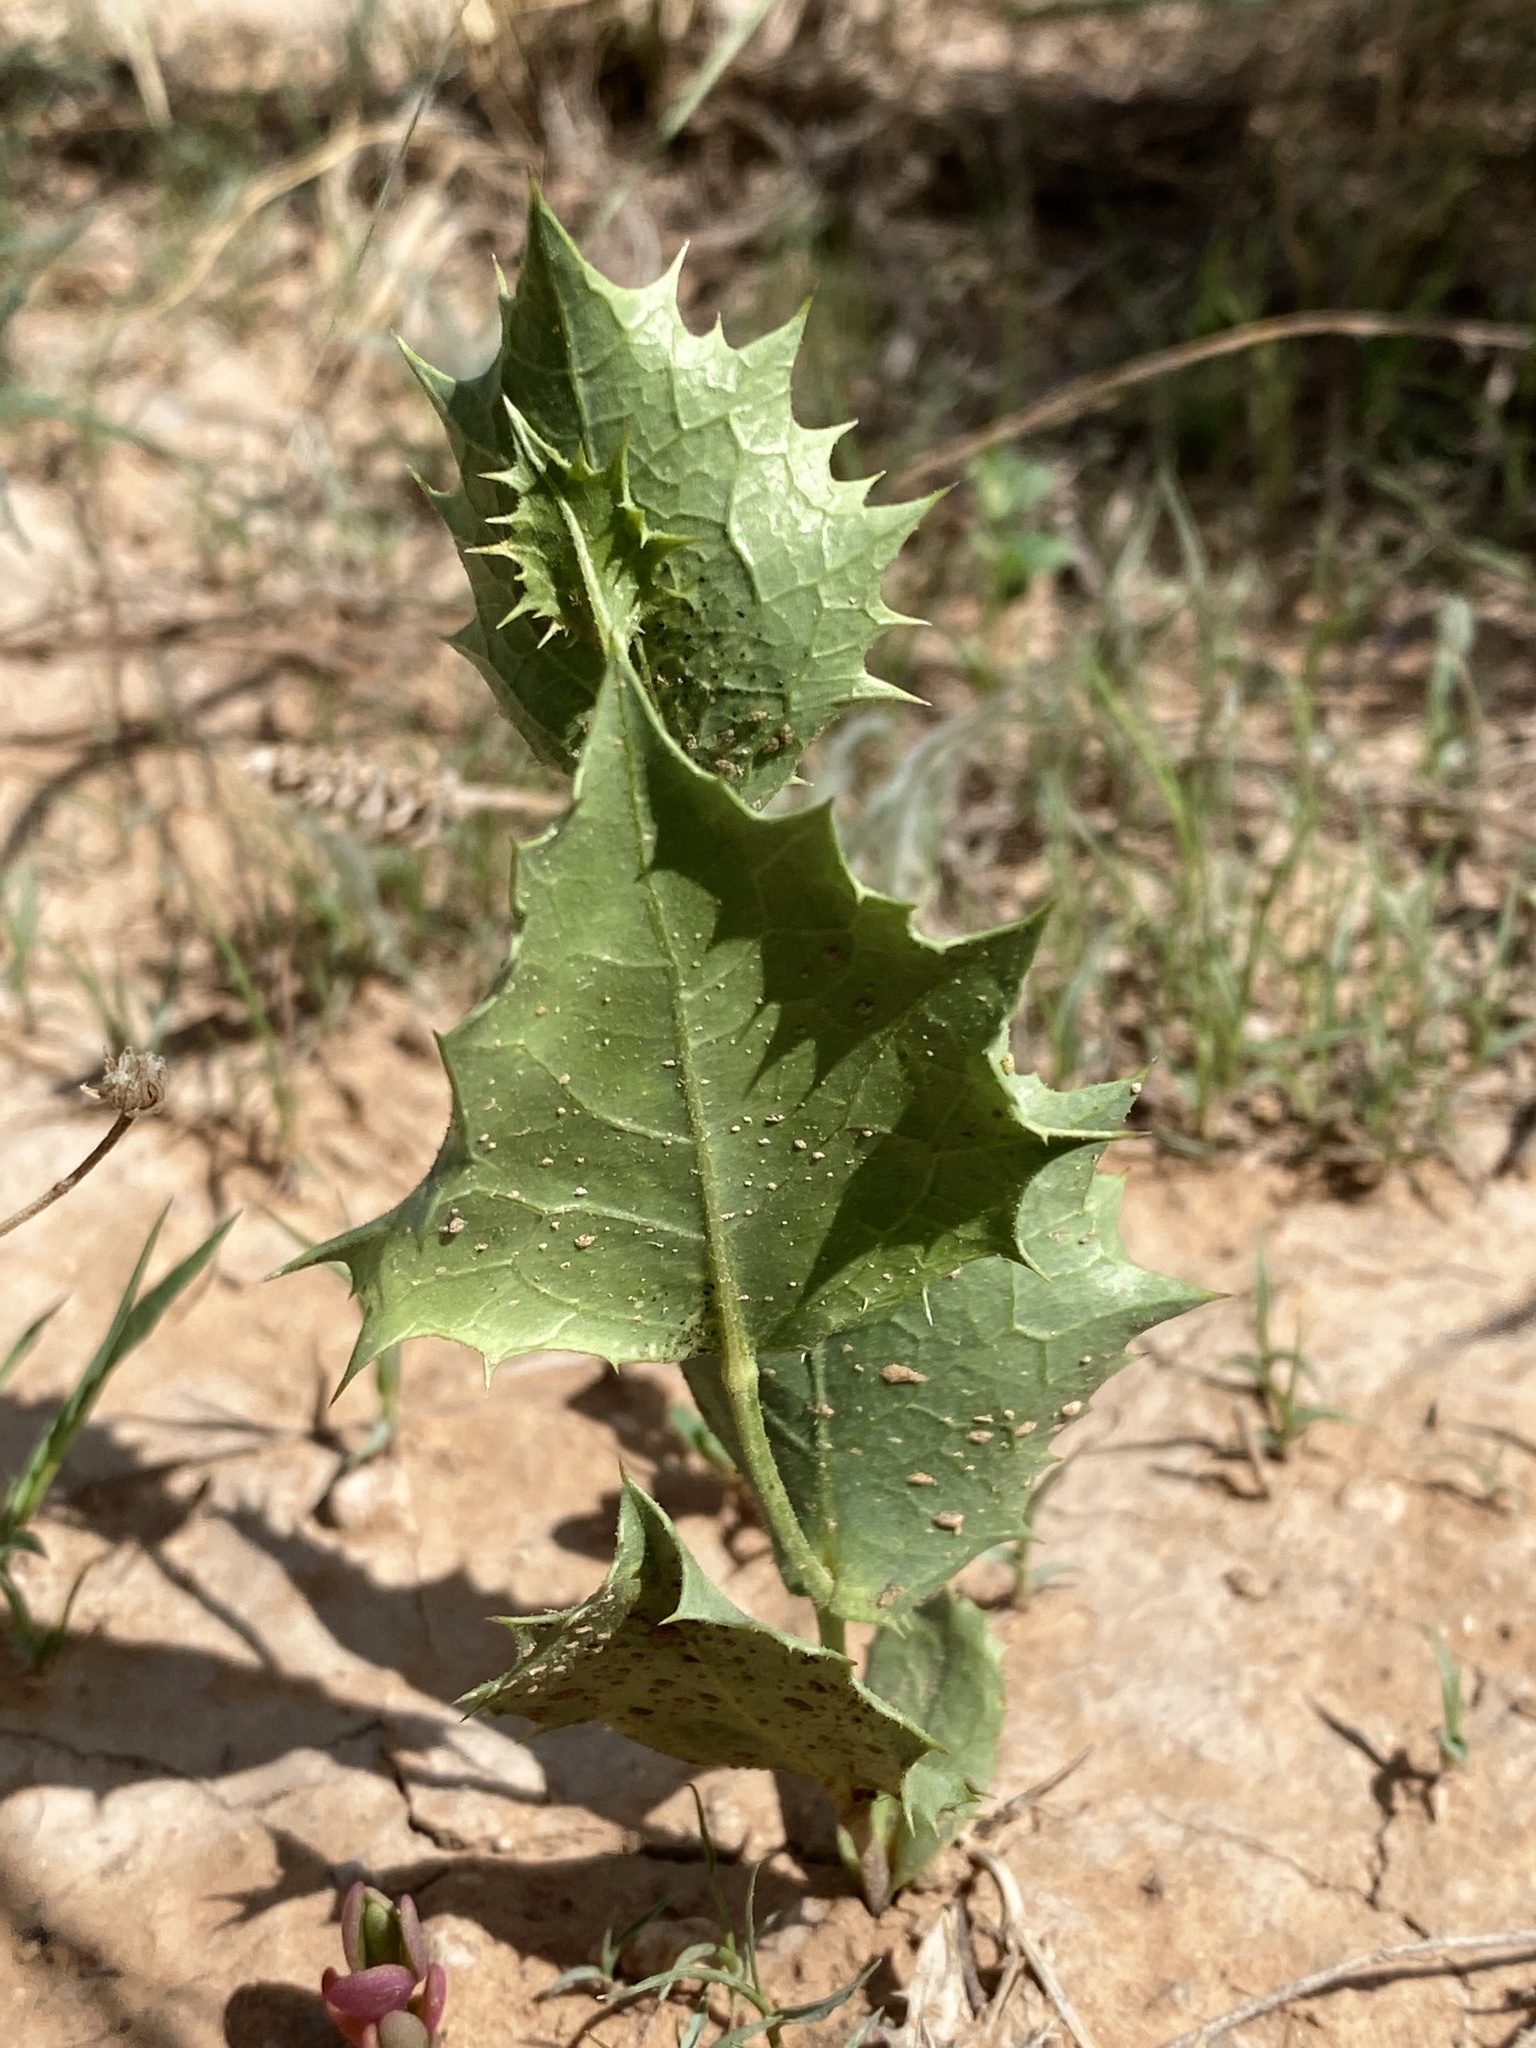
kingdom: Plantae
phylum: Tracheophyta
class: Magnoliopsida
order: Asterales
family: Asteraceae
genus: Acourtia
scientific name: Acourtia nana
